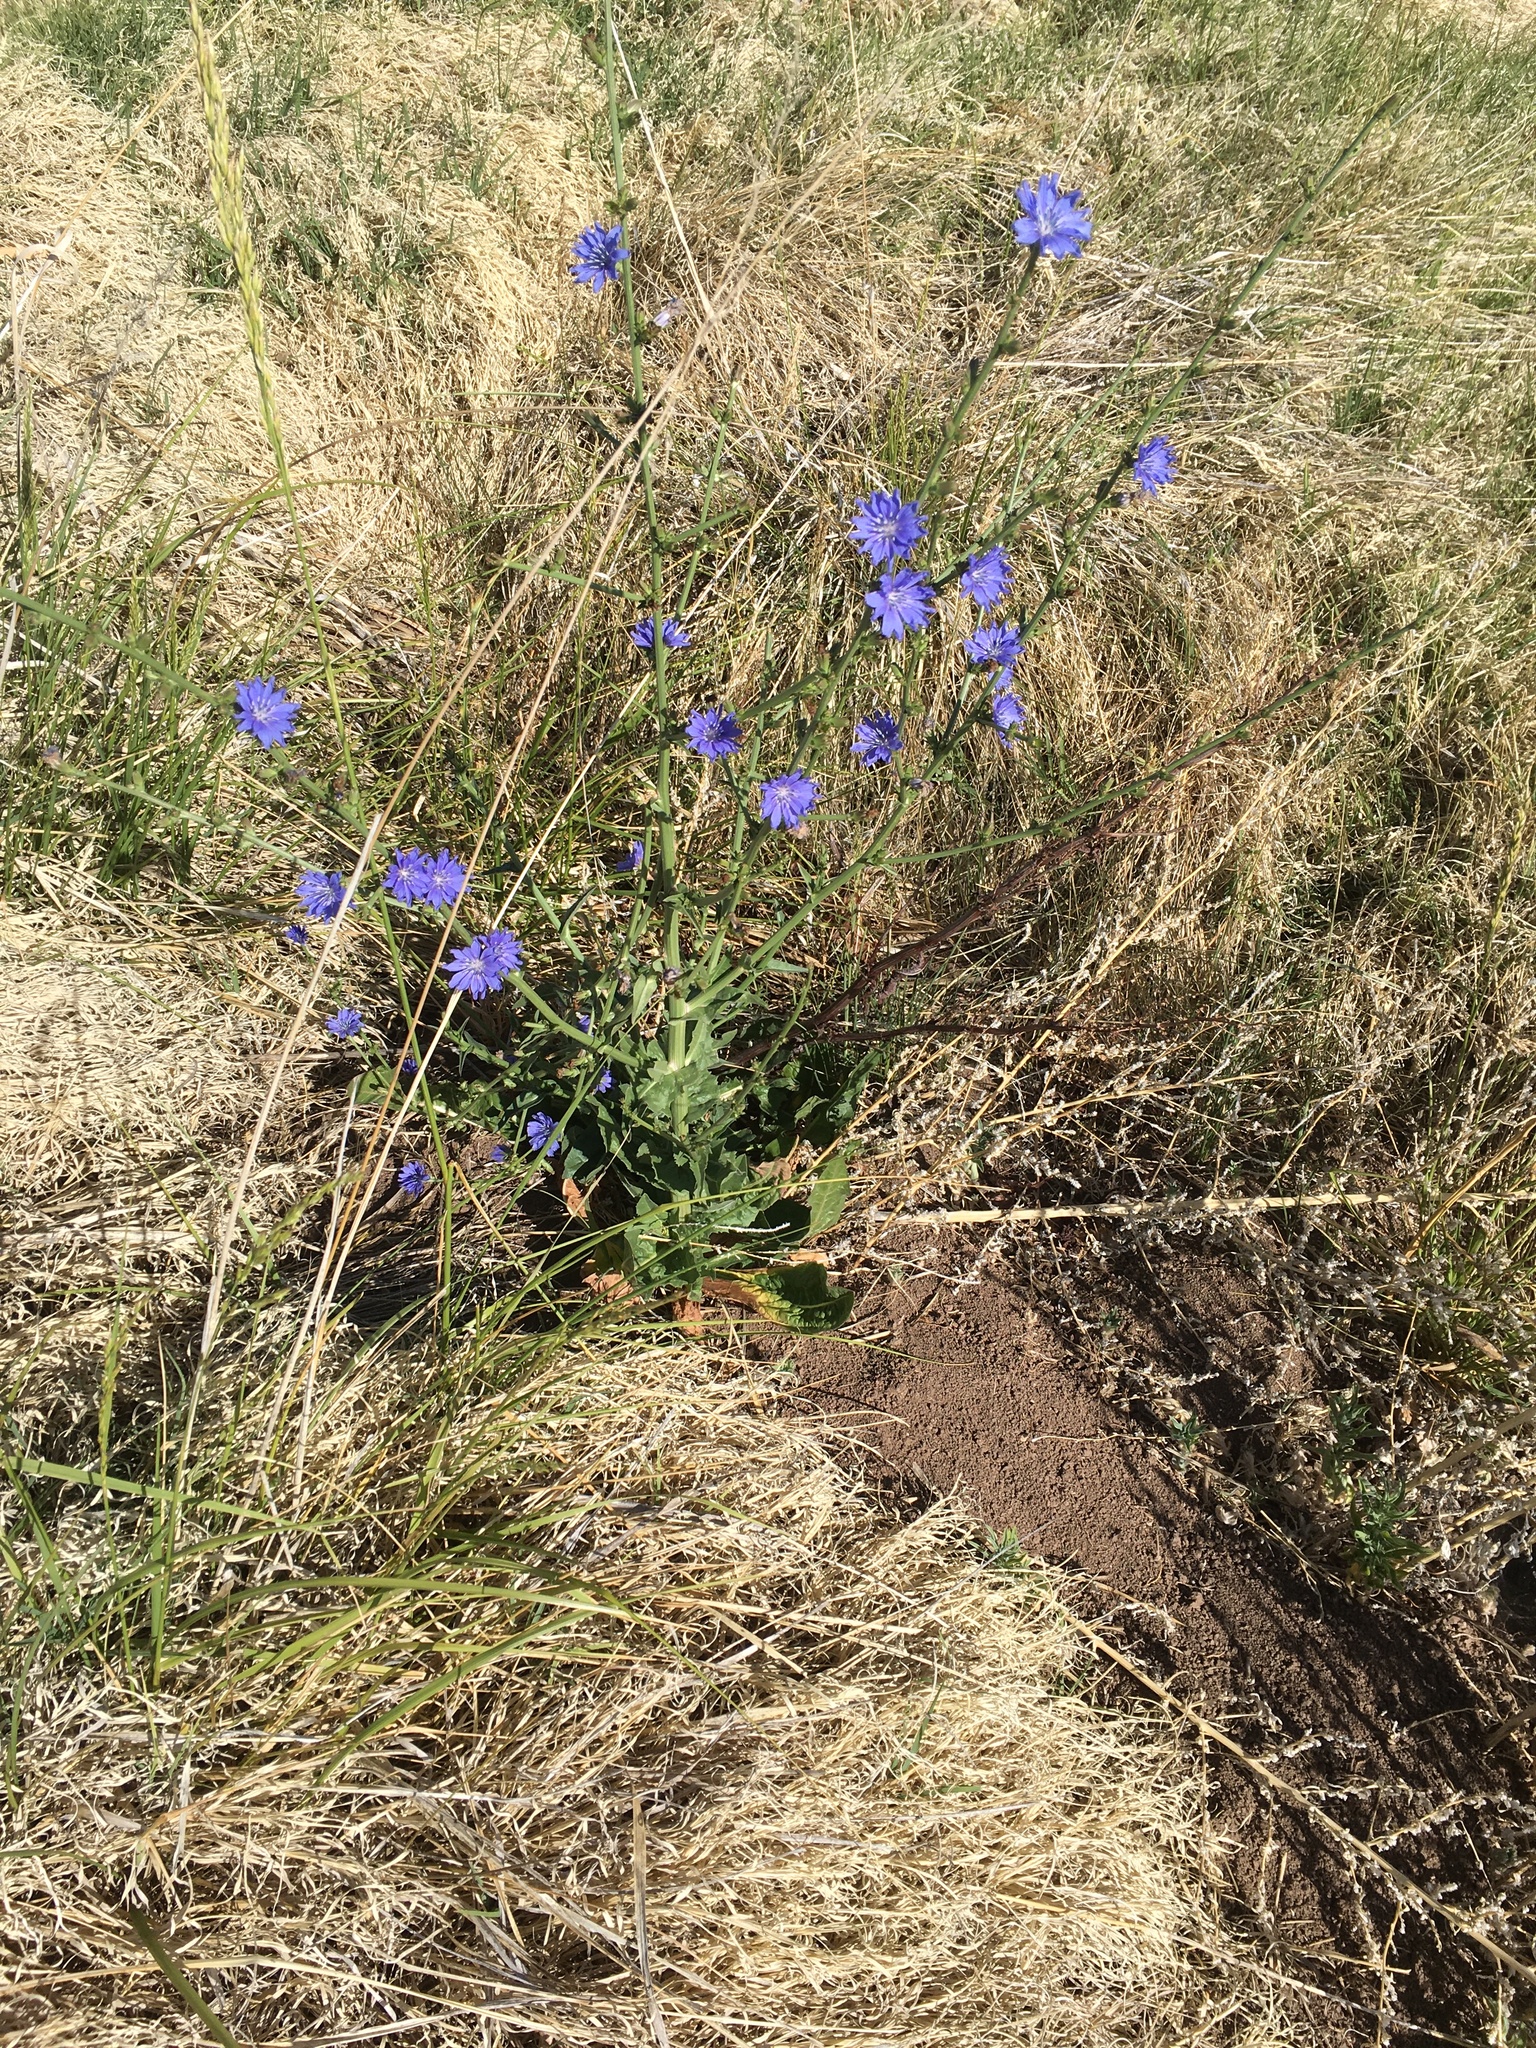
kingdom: Plantae
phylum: Tracheophyta
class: Magnoliopsida
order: Asterales
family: Asteraceae
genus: Cichorium
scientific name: Cichorium intybus
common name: Chicory
